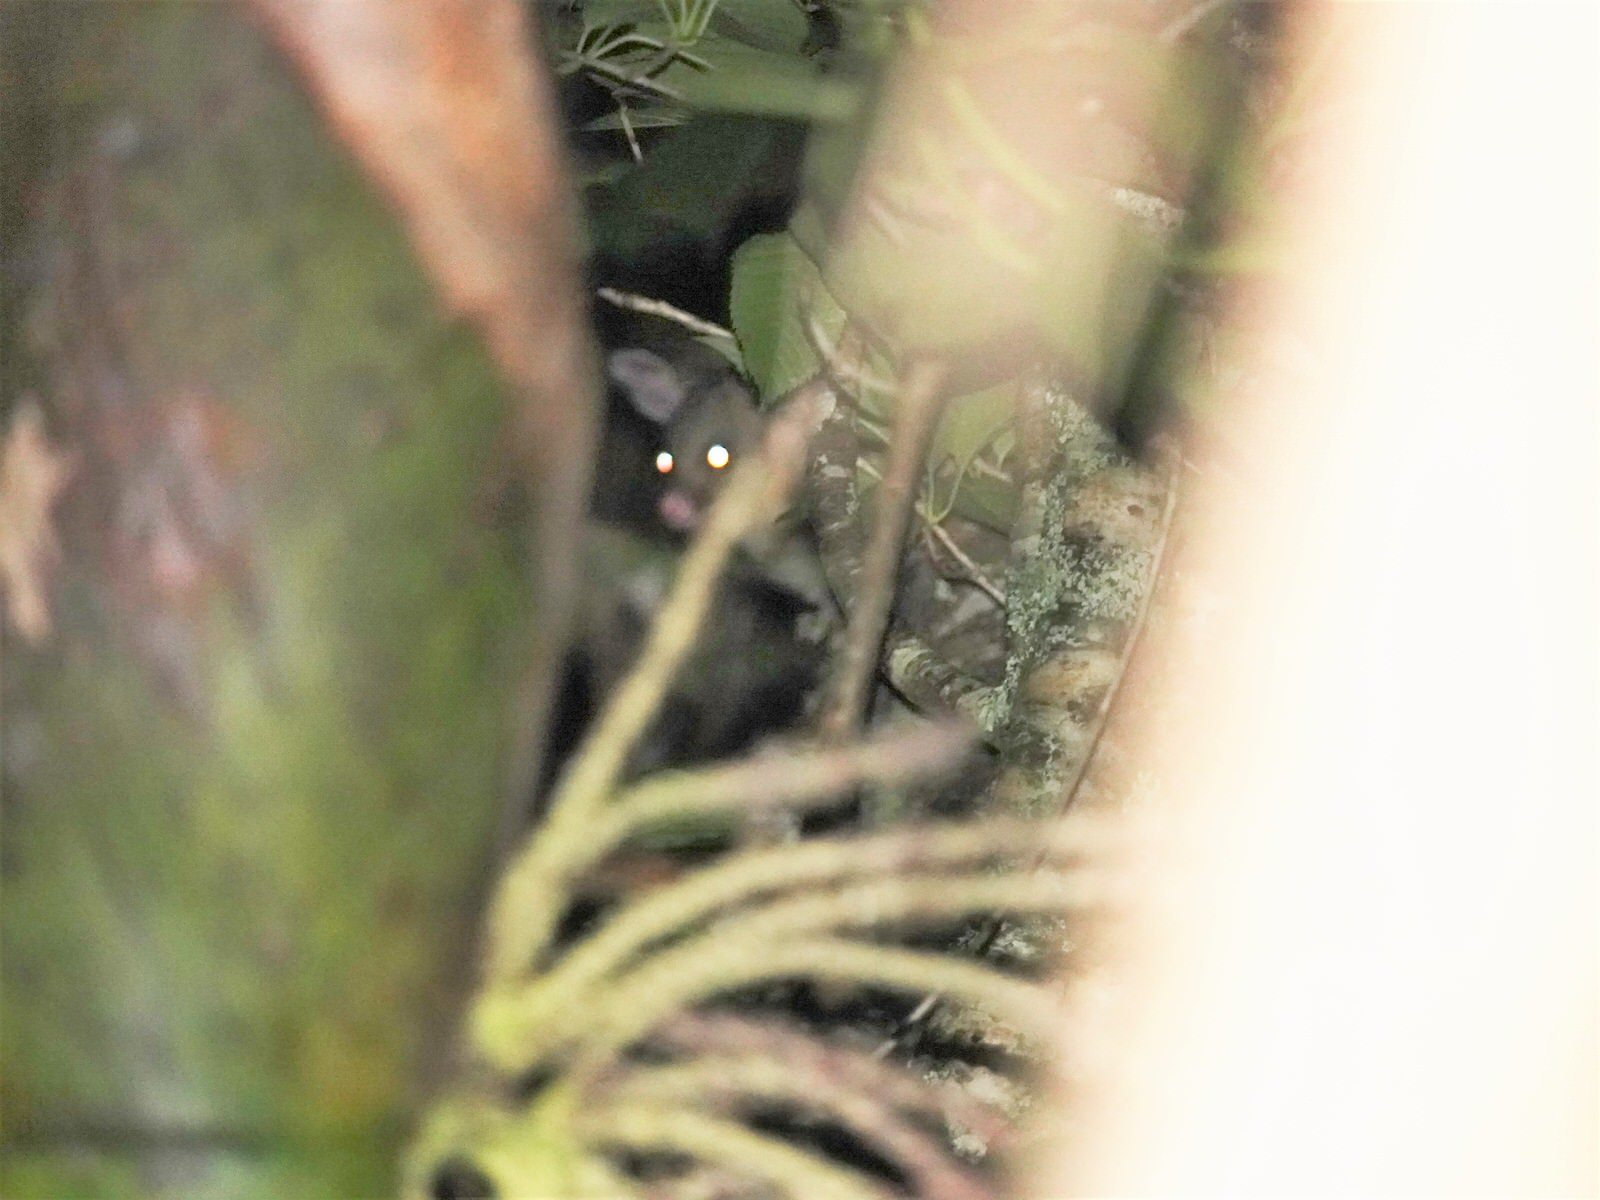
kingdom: Animalia
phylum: Chordata
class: Mammalia
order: Diprotodontia
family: Phalangeridae
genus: Trichosurus
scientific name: Trichosurus vulpecula
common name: Common brushtail
